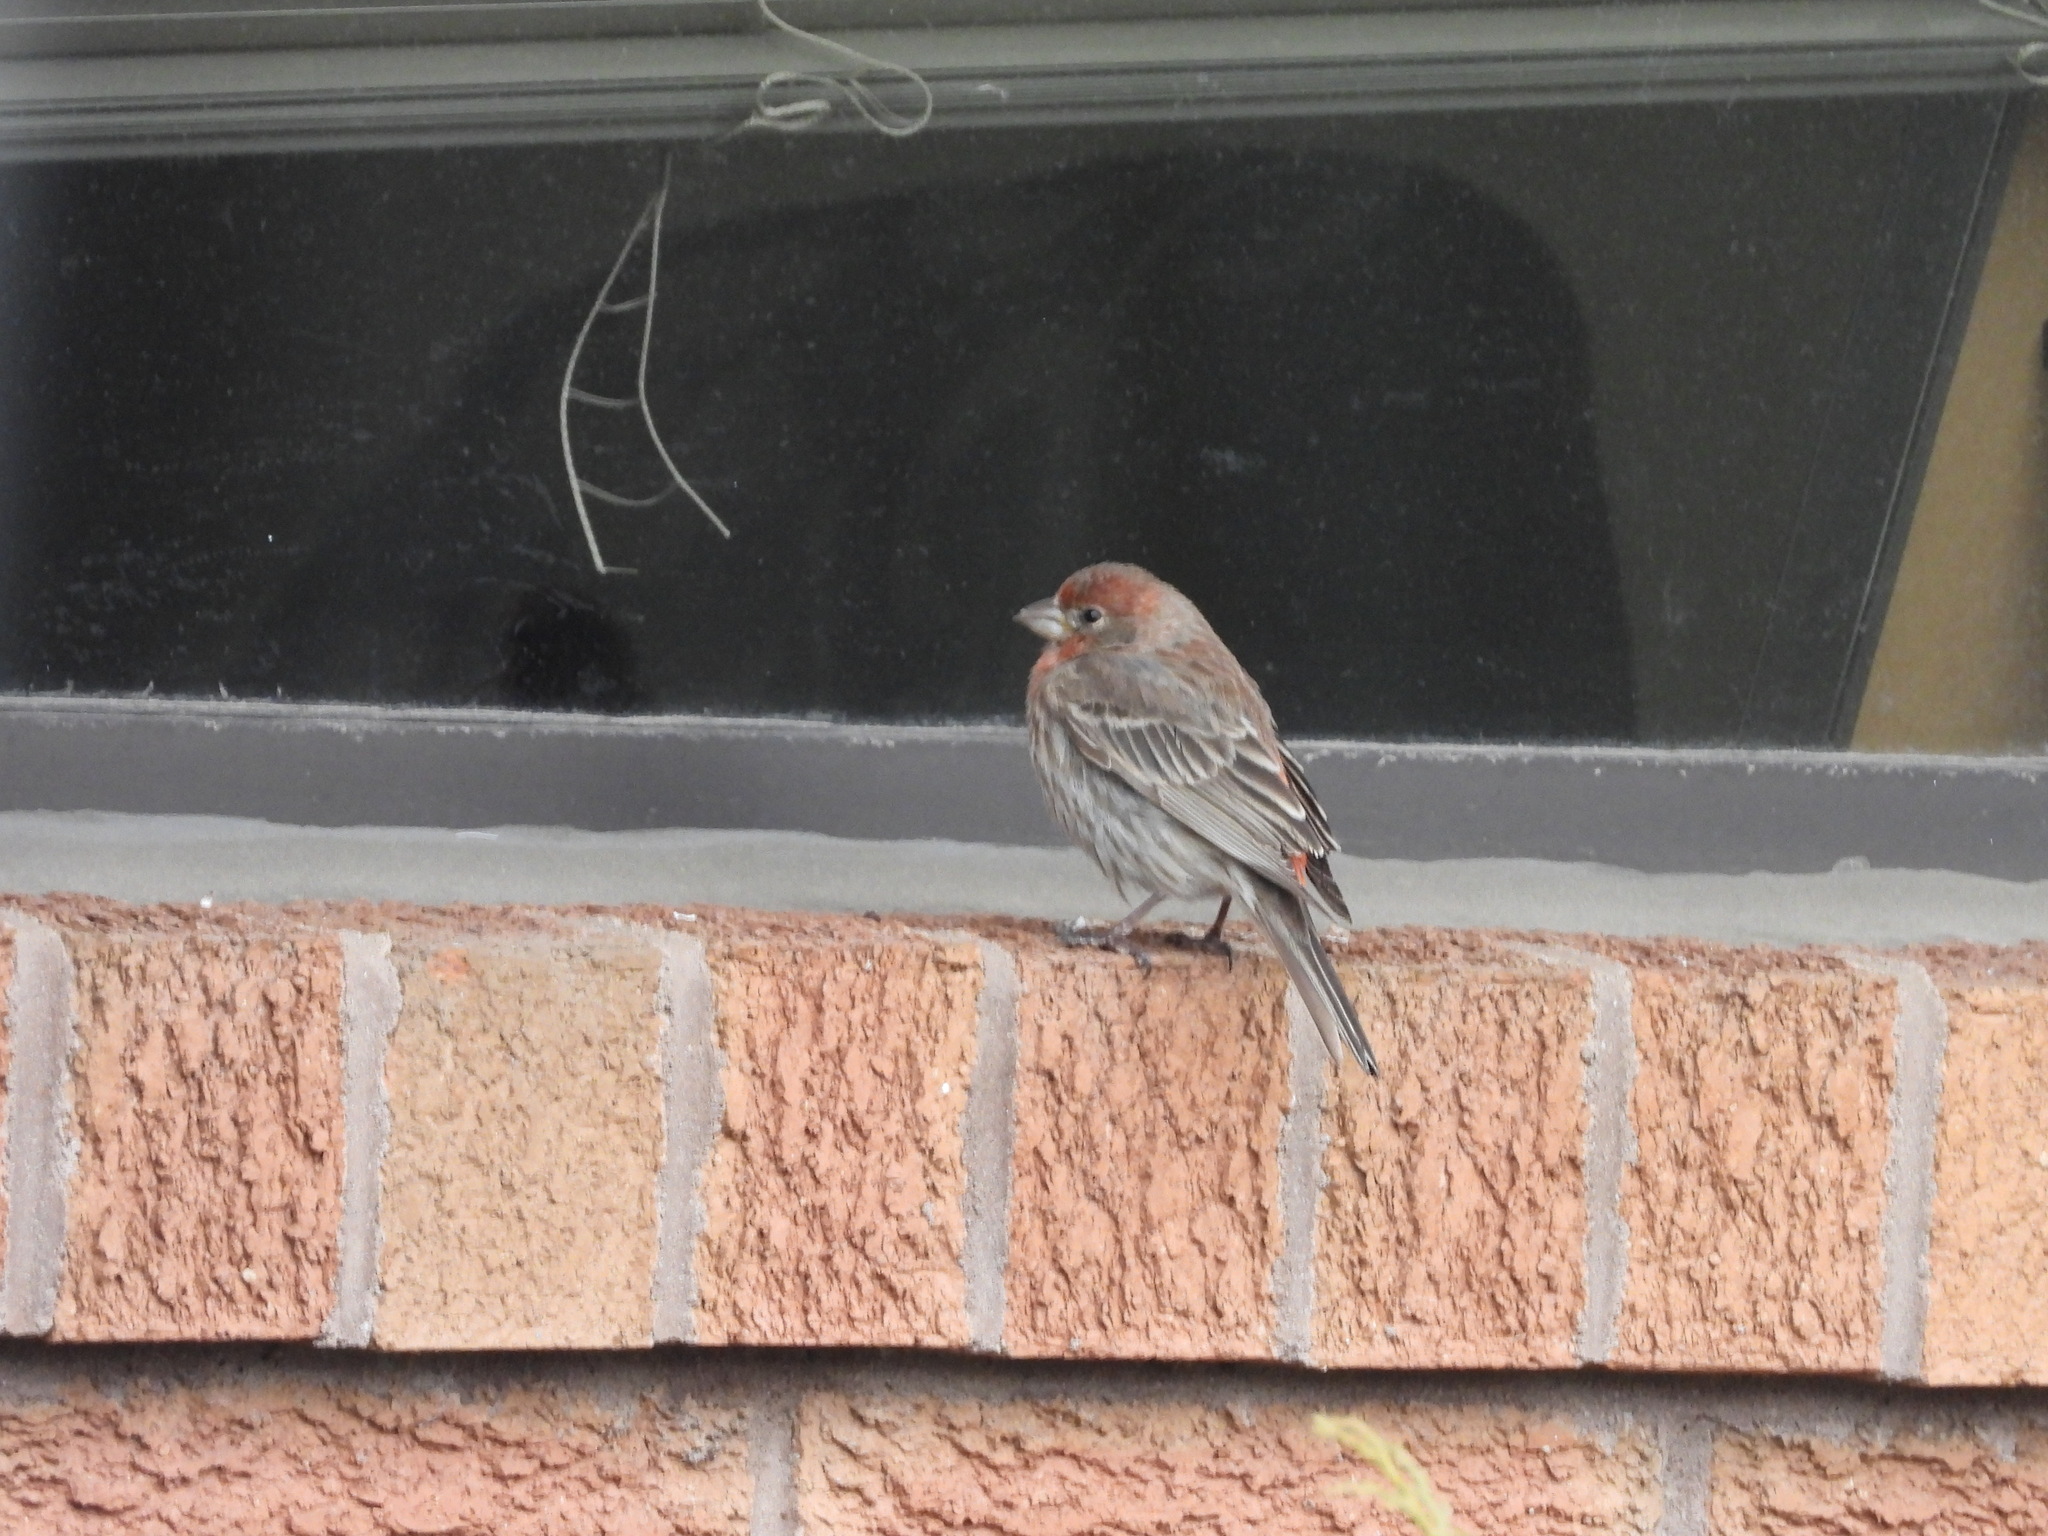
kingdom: Animalia
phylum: Chordata
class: Aves
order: Passeriformes
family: Fringillidae
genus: Haemorhous
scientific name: Haemorhous mexicanus
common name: House finch
